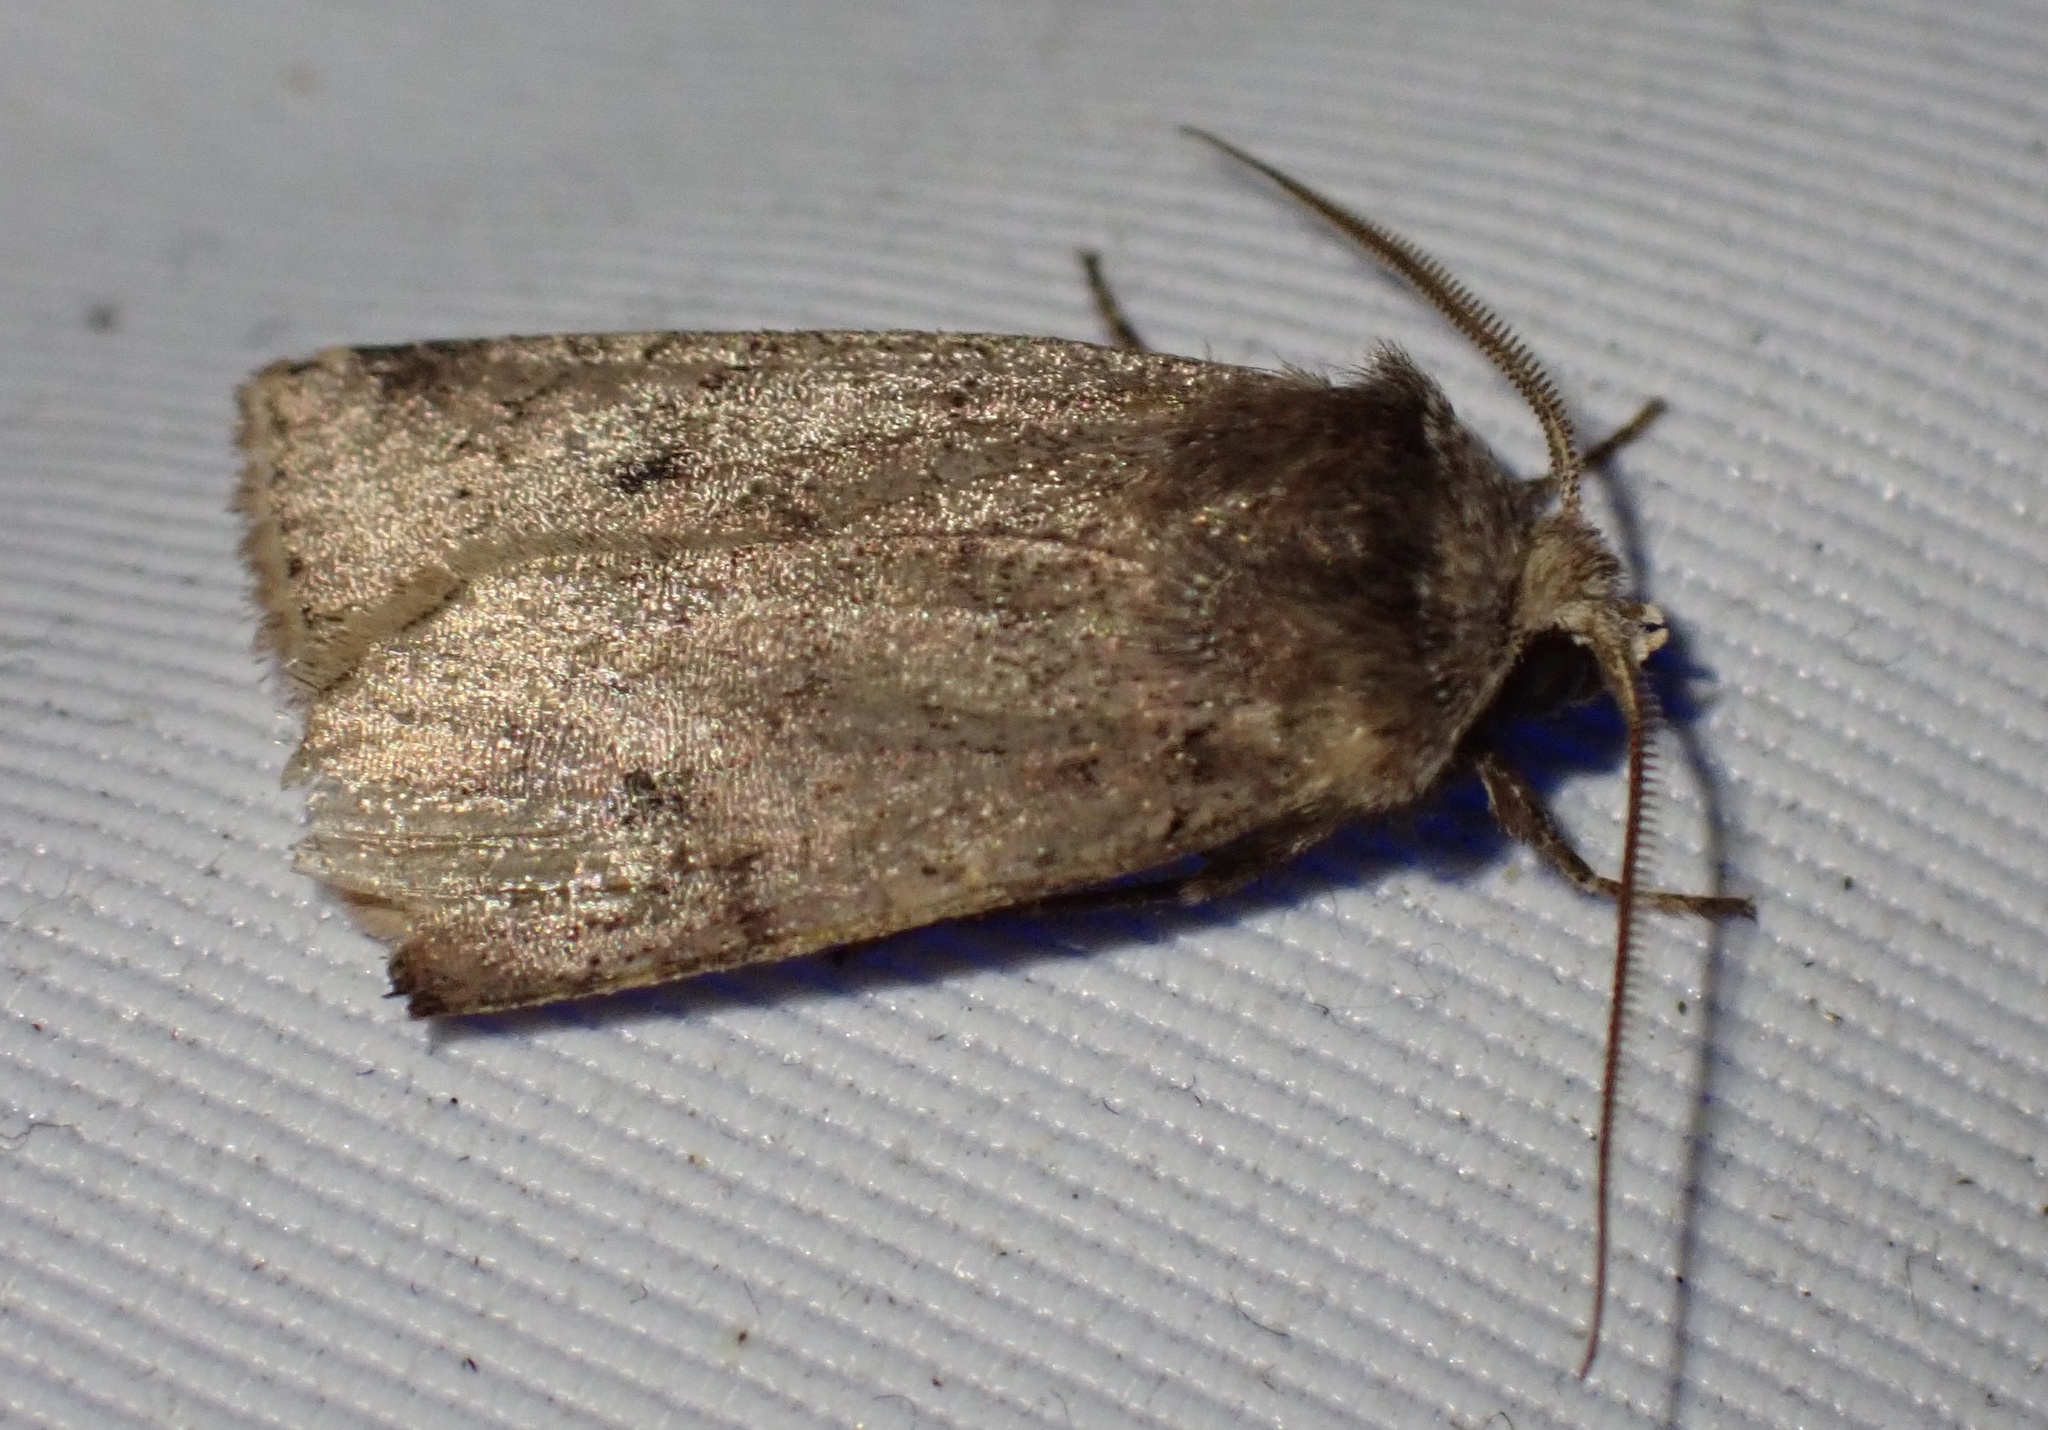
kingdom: Animalia
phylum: Arthropoda
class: Insecta
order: Lepidoptera
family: Noctuidae
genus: Cerastis
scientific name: Cerastis faceta
